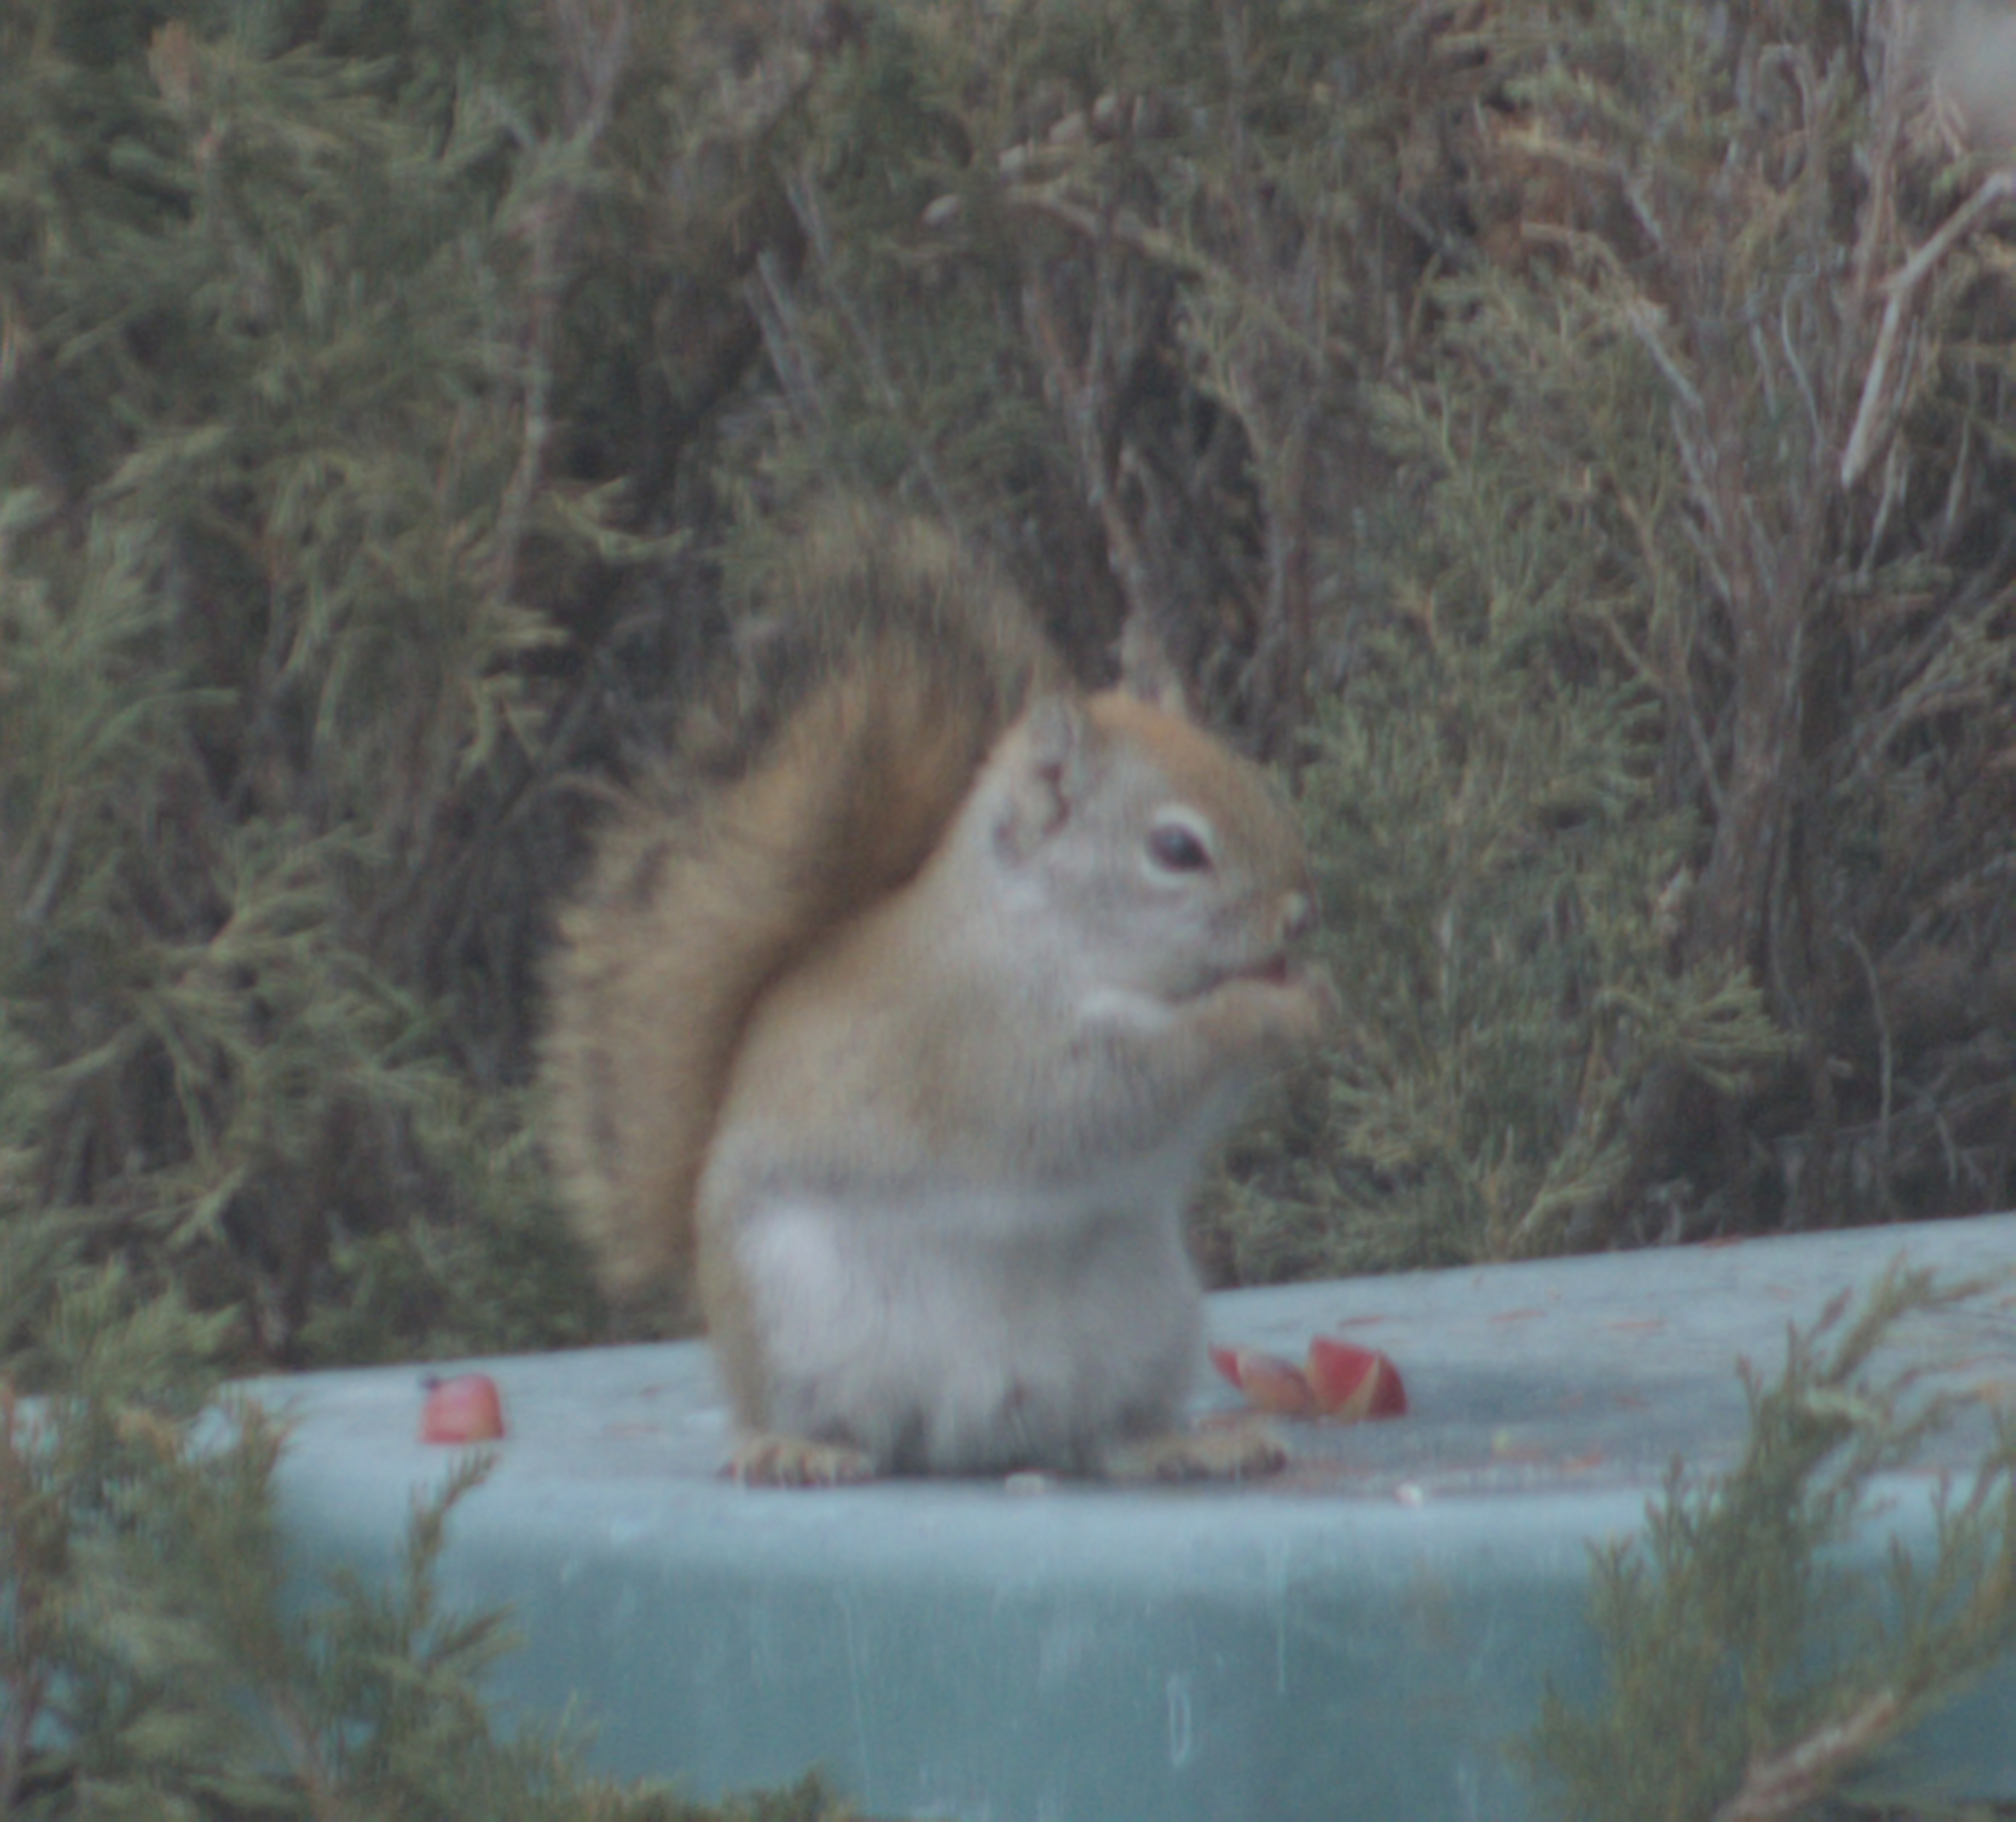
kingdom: Animalia
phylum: Chordata
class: Mammalia
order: Rodentia
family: Sciuridae
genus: Tamiasciurus
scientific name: Tamiasciurus hudsonicus
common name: Red squirrel
